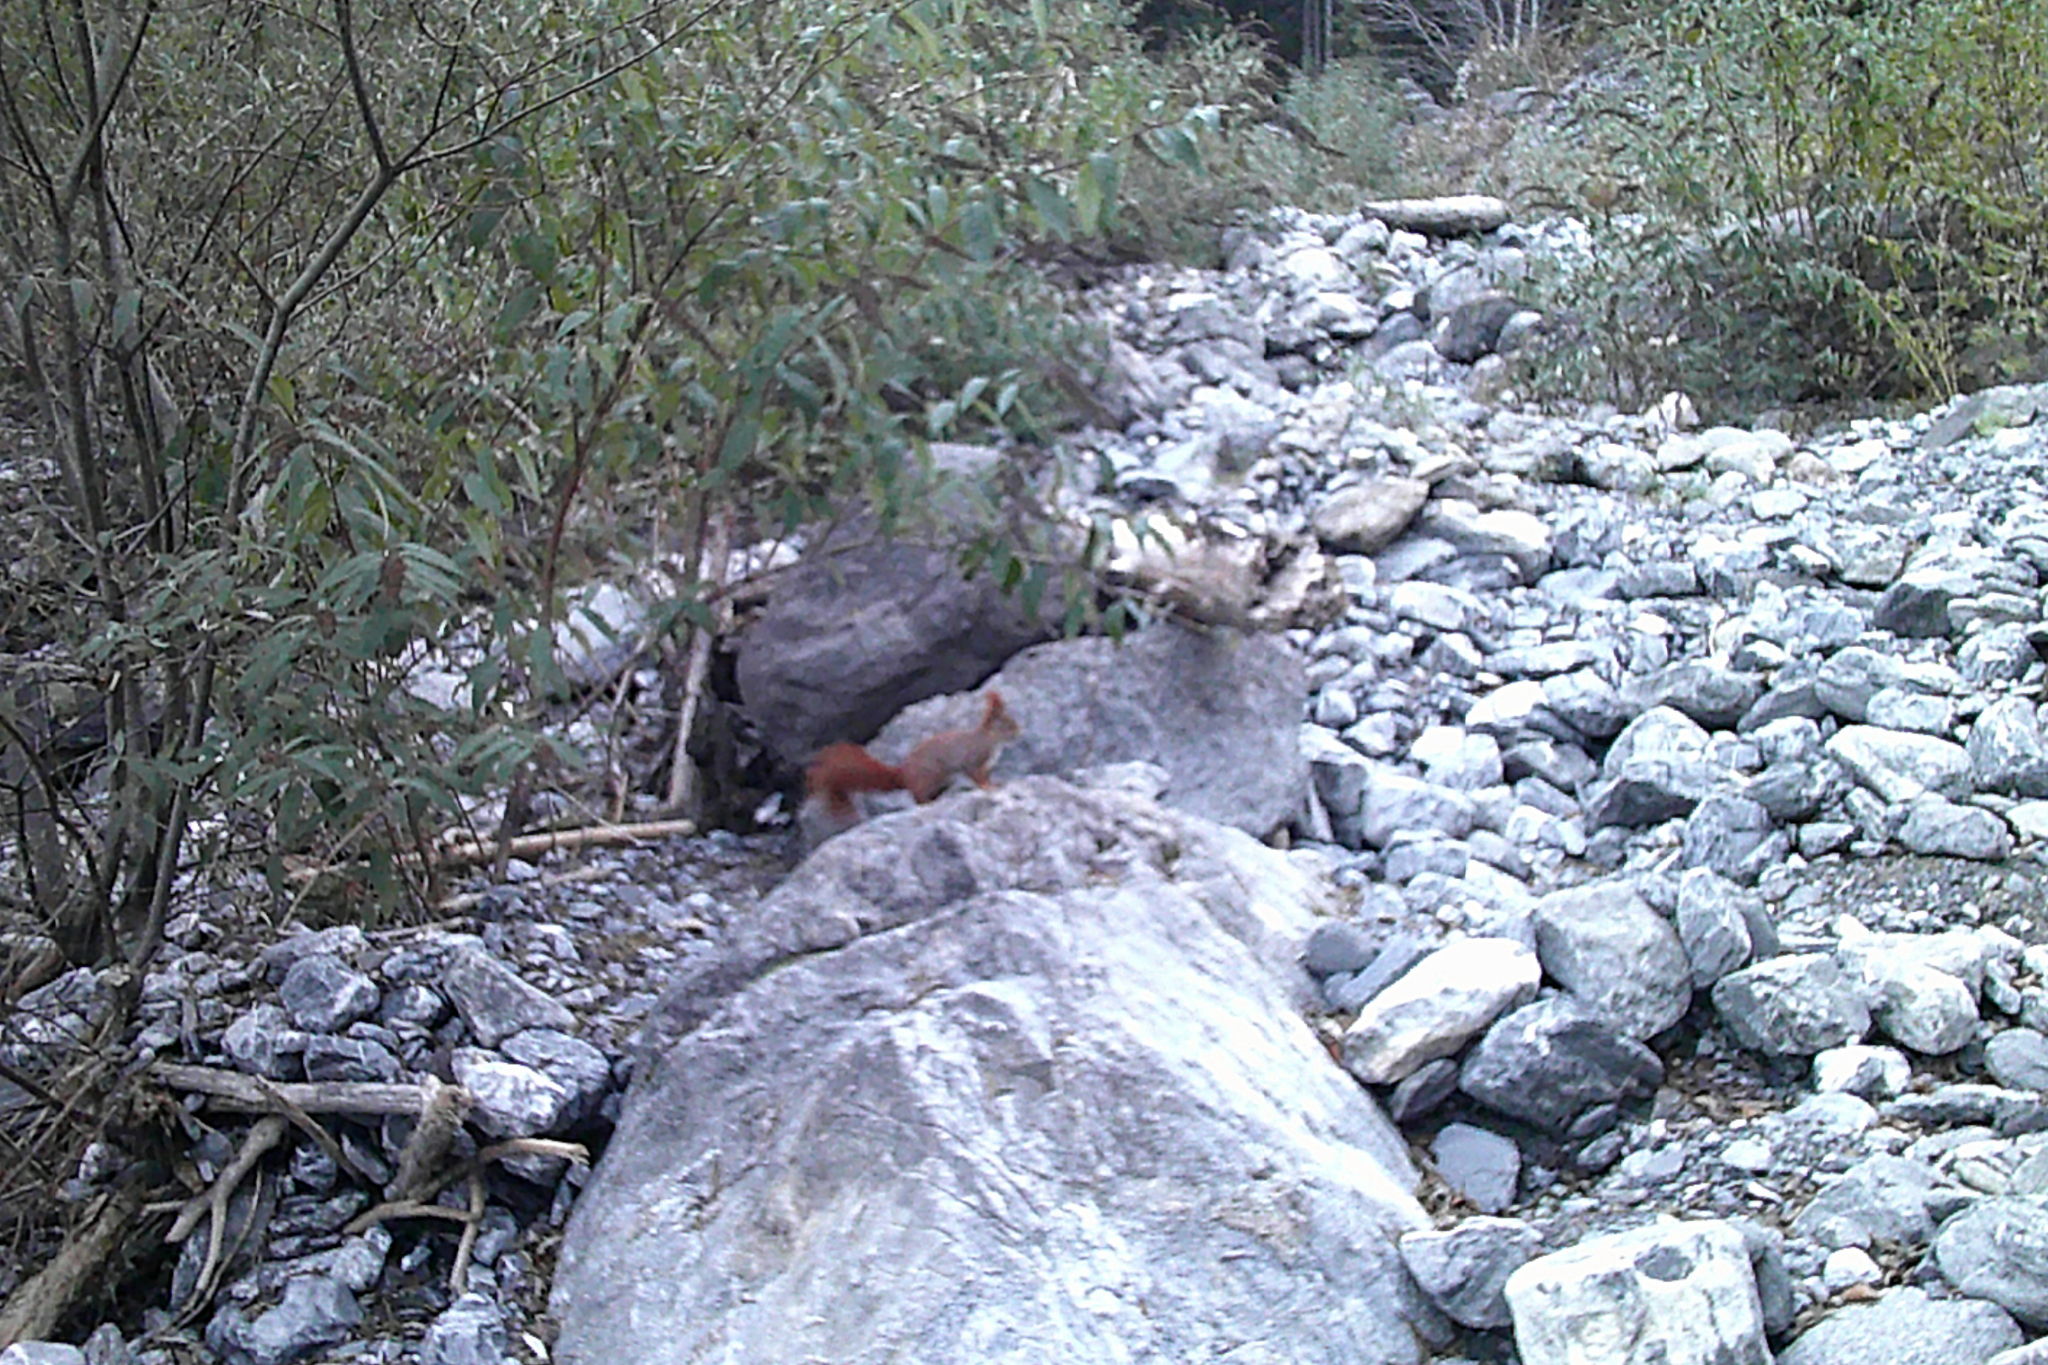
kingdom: Animalia
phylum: Chordata
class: Mammalia
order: Rodentia
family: Sciuridae
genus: Sciurus
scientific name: Sciurus vulgaris
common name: Eurasian red squirrel
